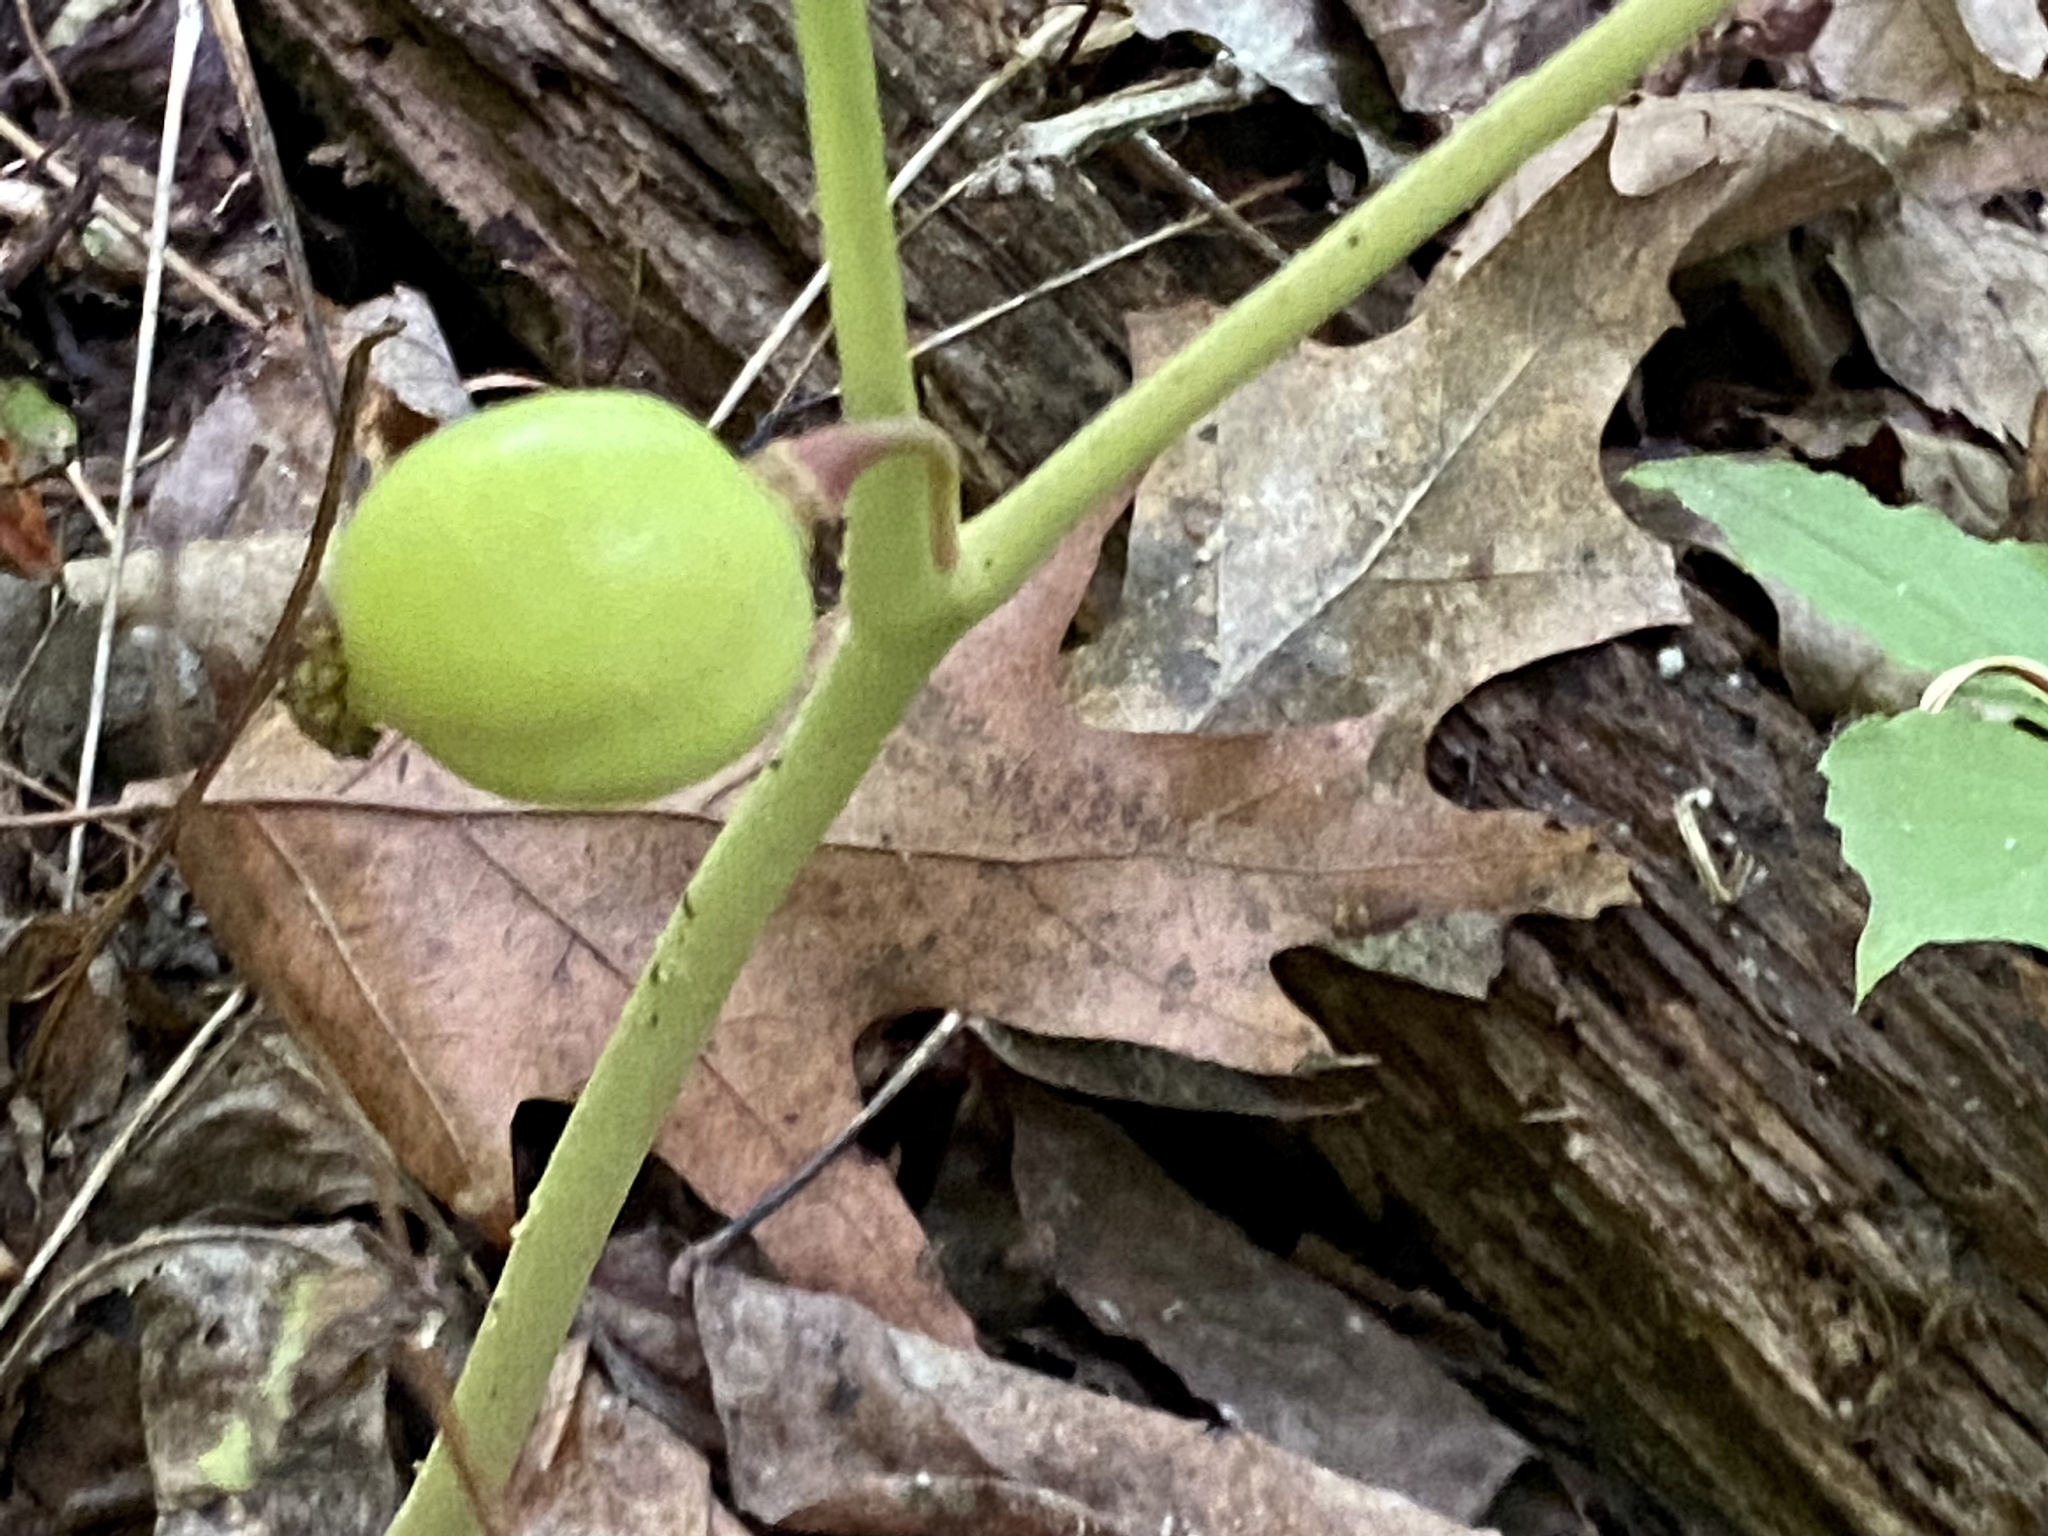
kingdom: Plantae
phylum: Tracheophyta
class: Magnoliopsida
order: Ranunculales
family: Berberidaceae
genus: Podophyllum
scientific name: Podophyllum peltatum
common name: Wild mandrake
